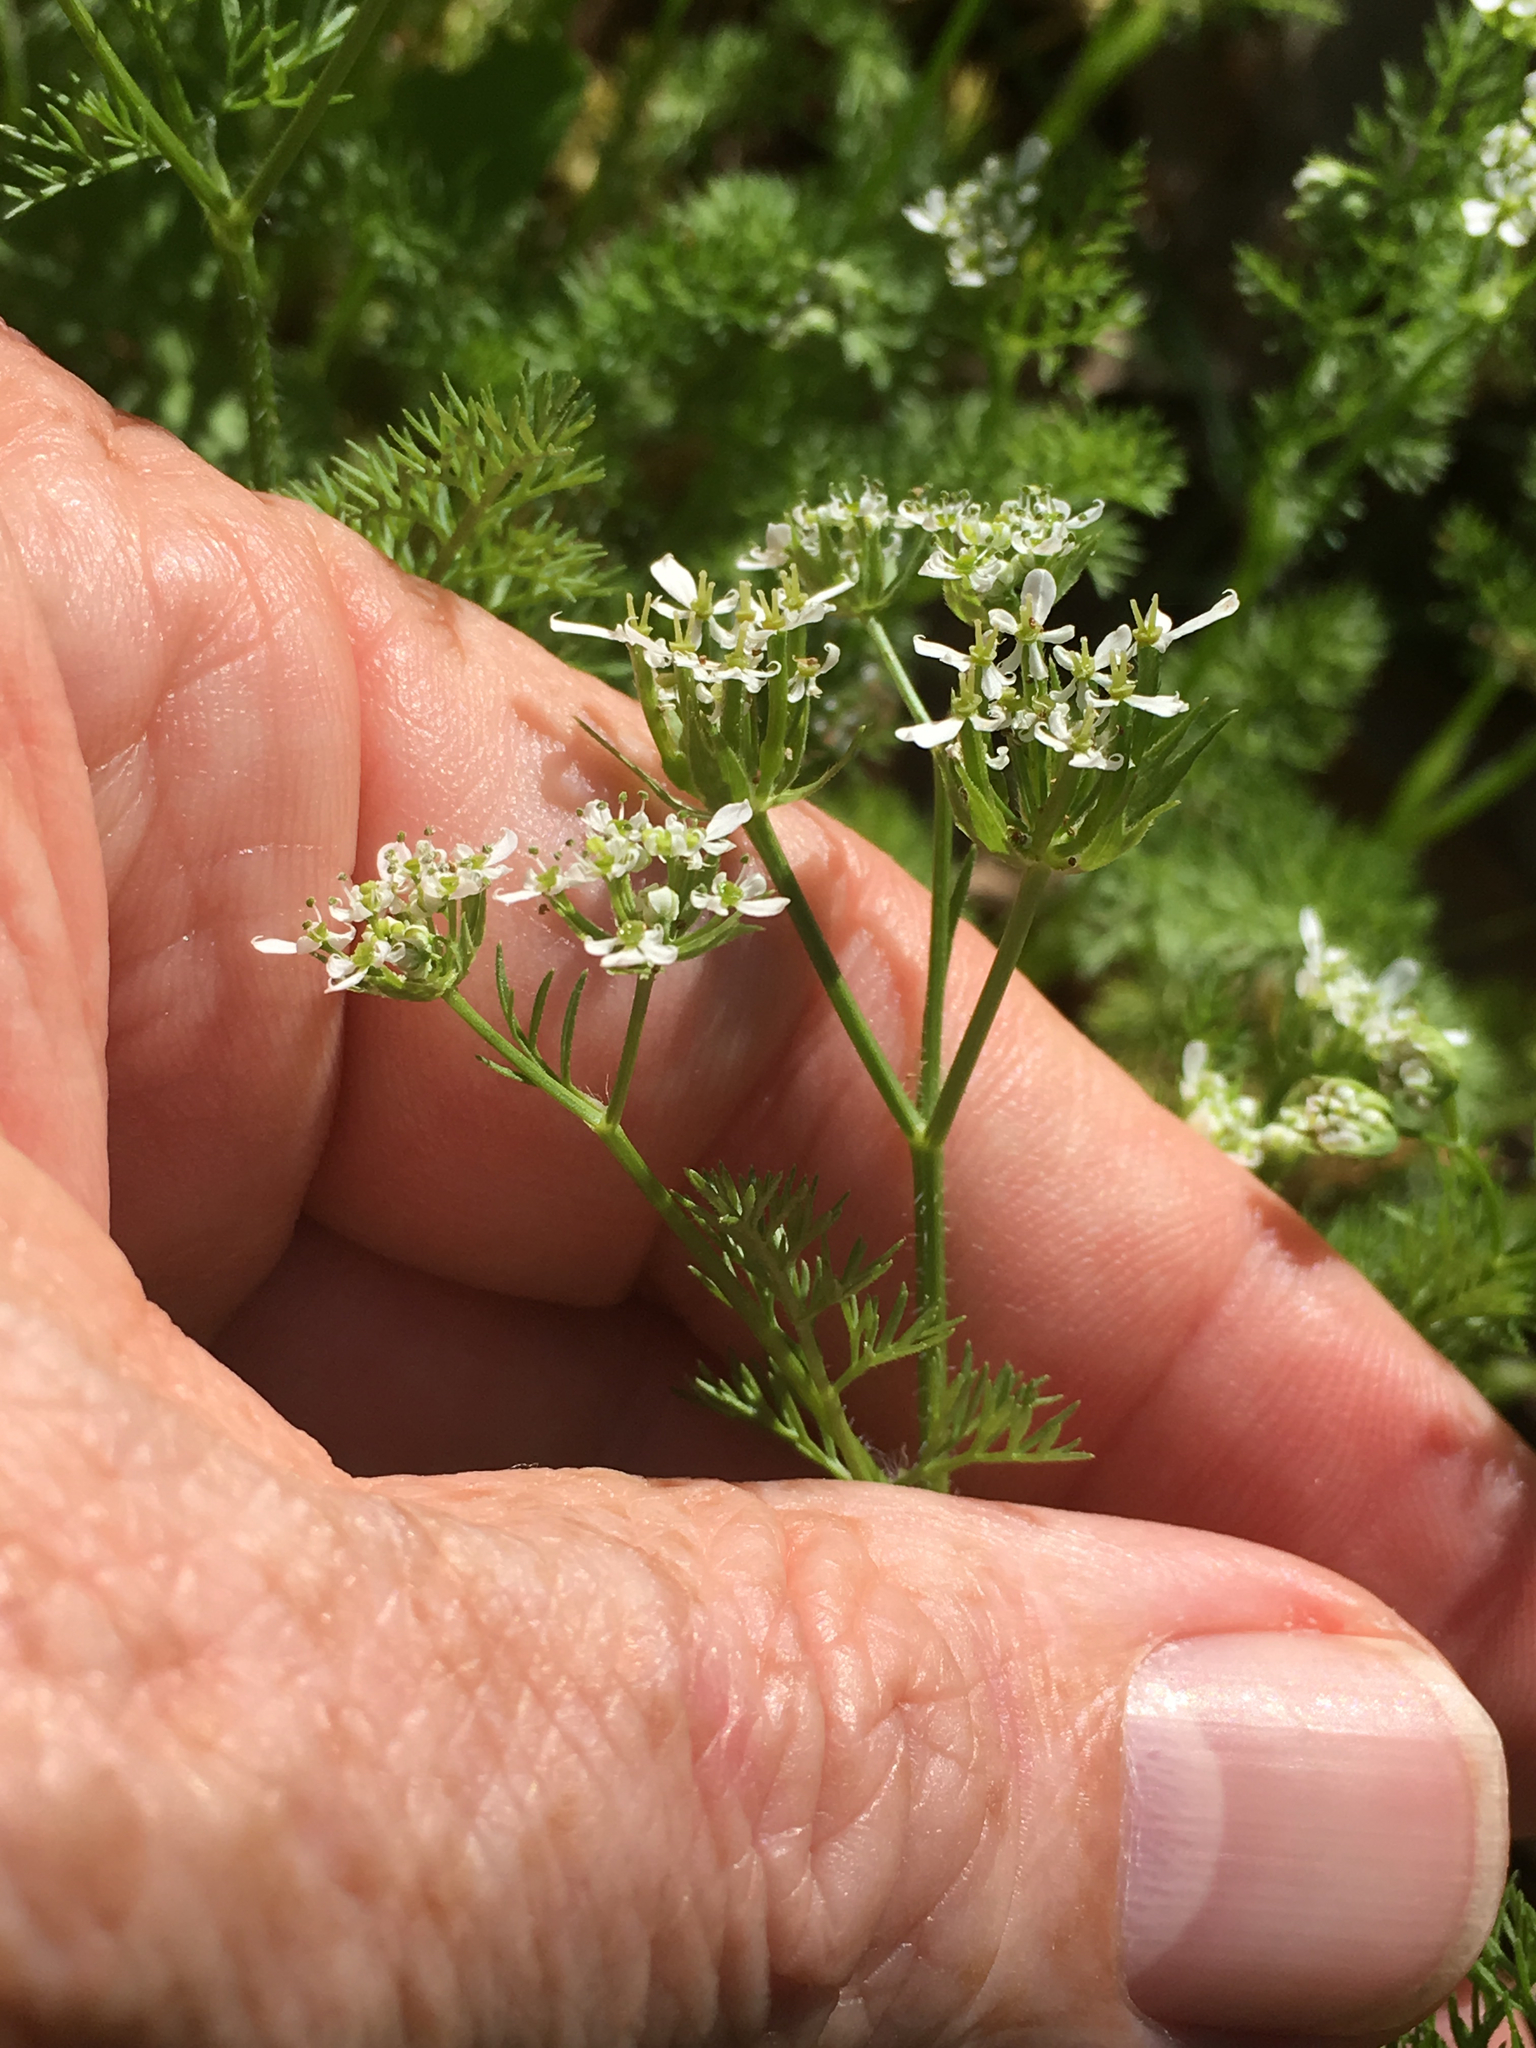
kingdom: Plantae
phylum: Tracheophyta
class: Magnoliopsida
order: Apiales
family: Apiaceae
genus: Scandix
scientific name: Scandix pecten-veneris
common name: Shepherd's-needle
